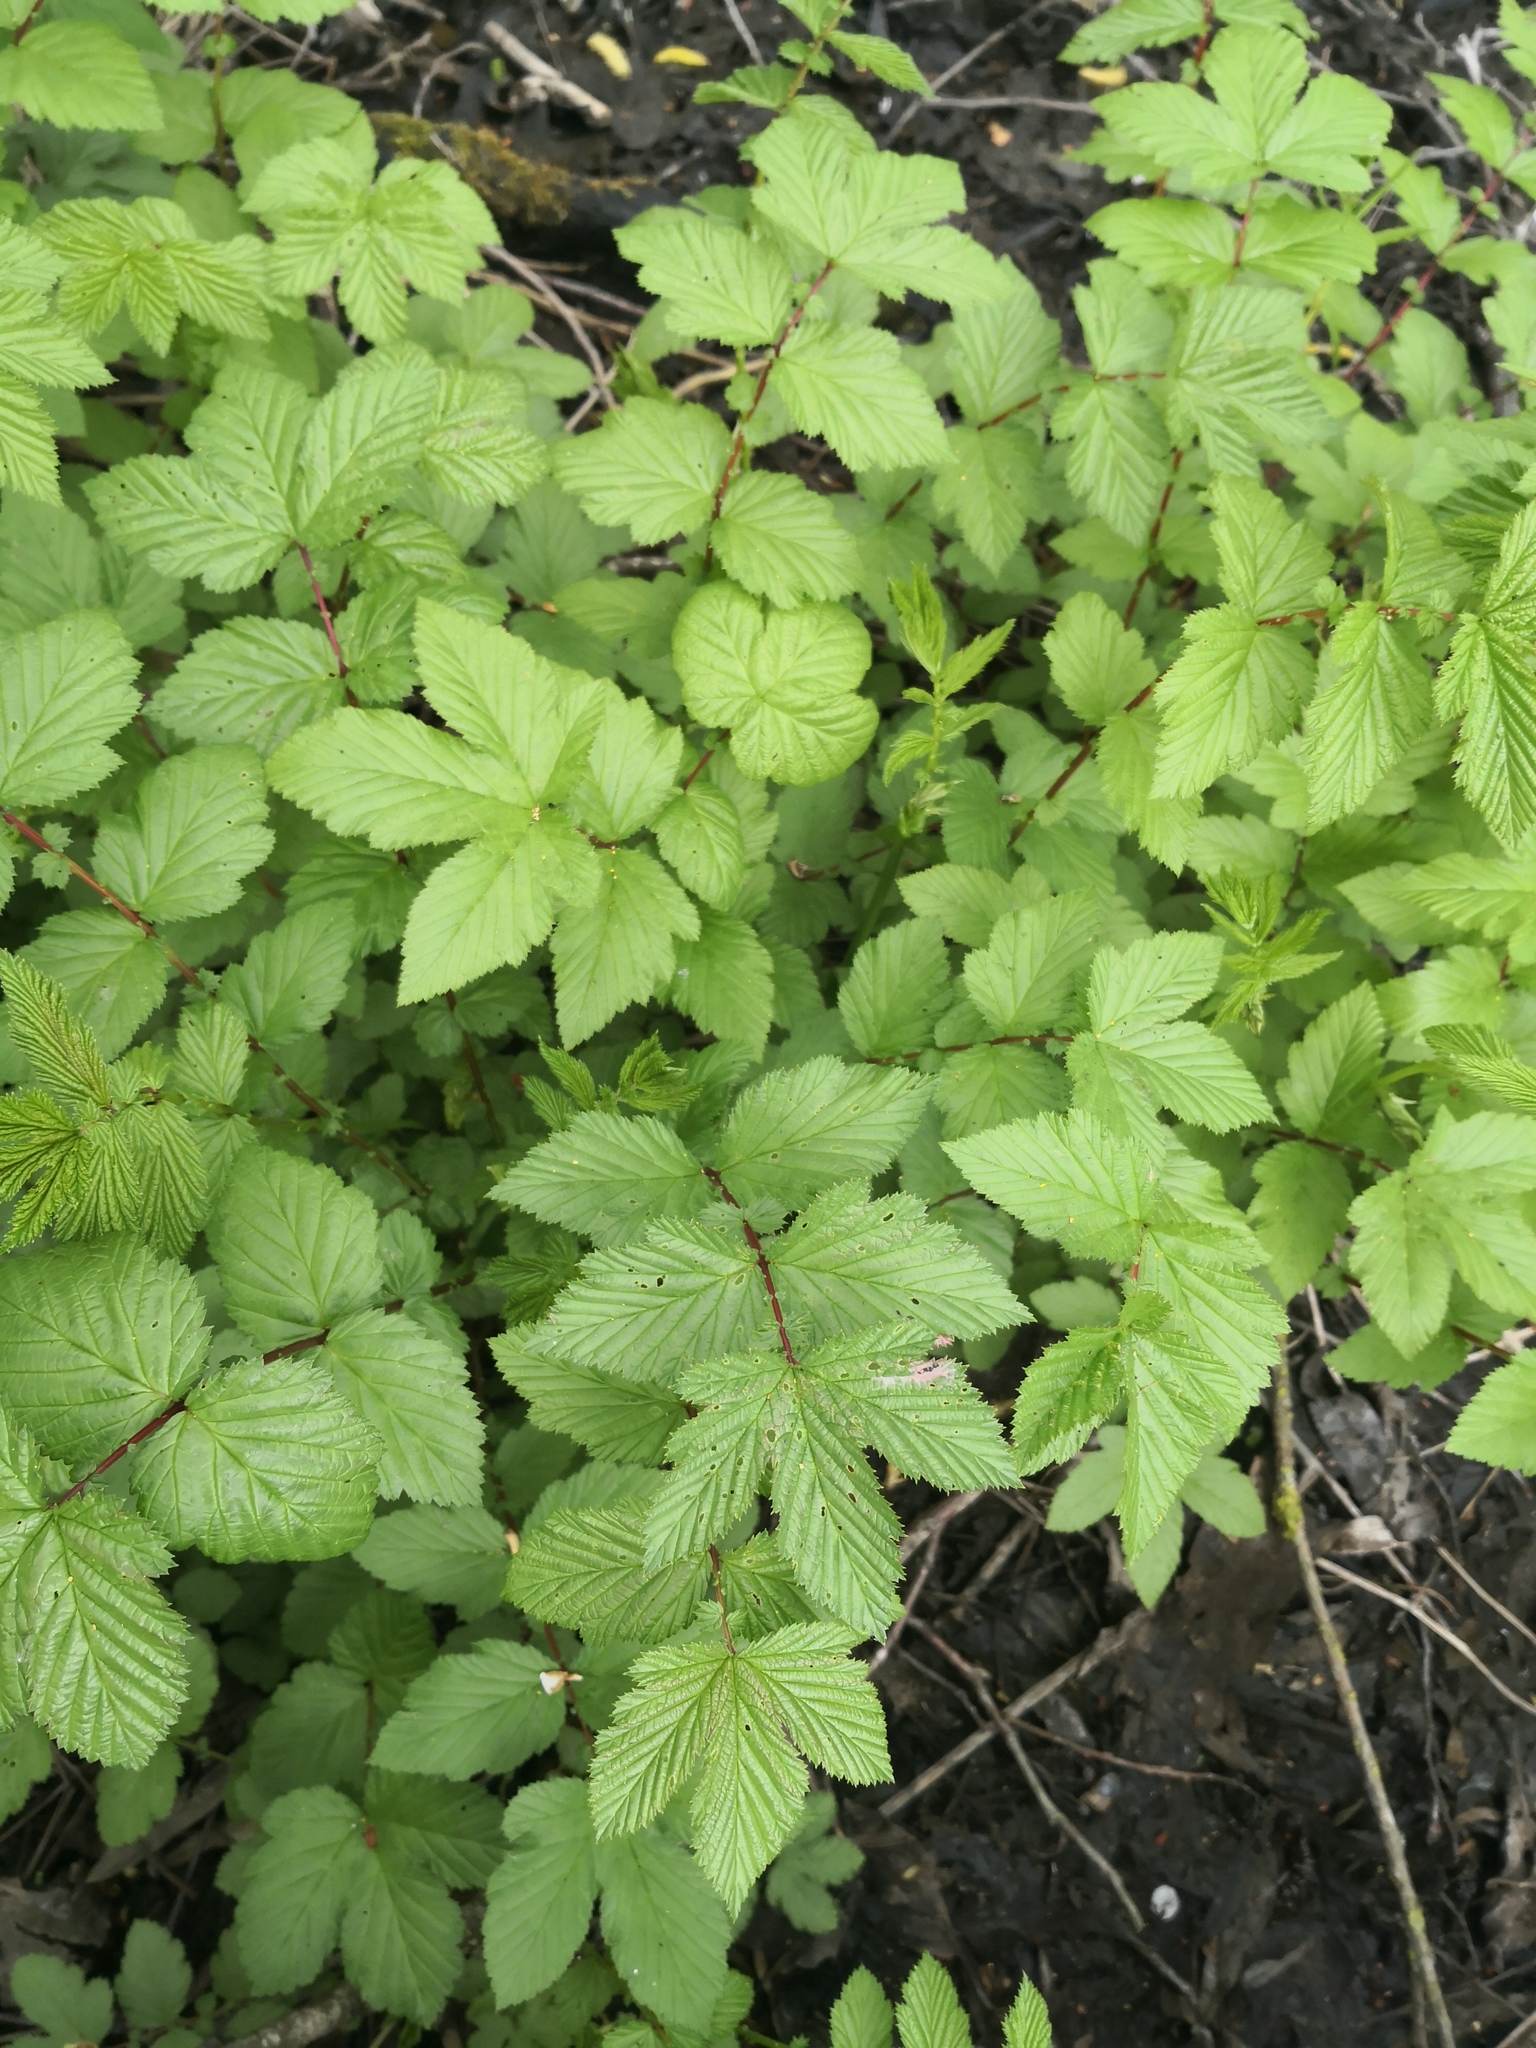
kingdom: Plantae
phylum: Tracheophyta
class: Magnoliopsida
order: Rosales
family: Rosaceae
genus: Filipendula
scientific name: Filipendula ulmaria
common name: Meadowsweet
